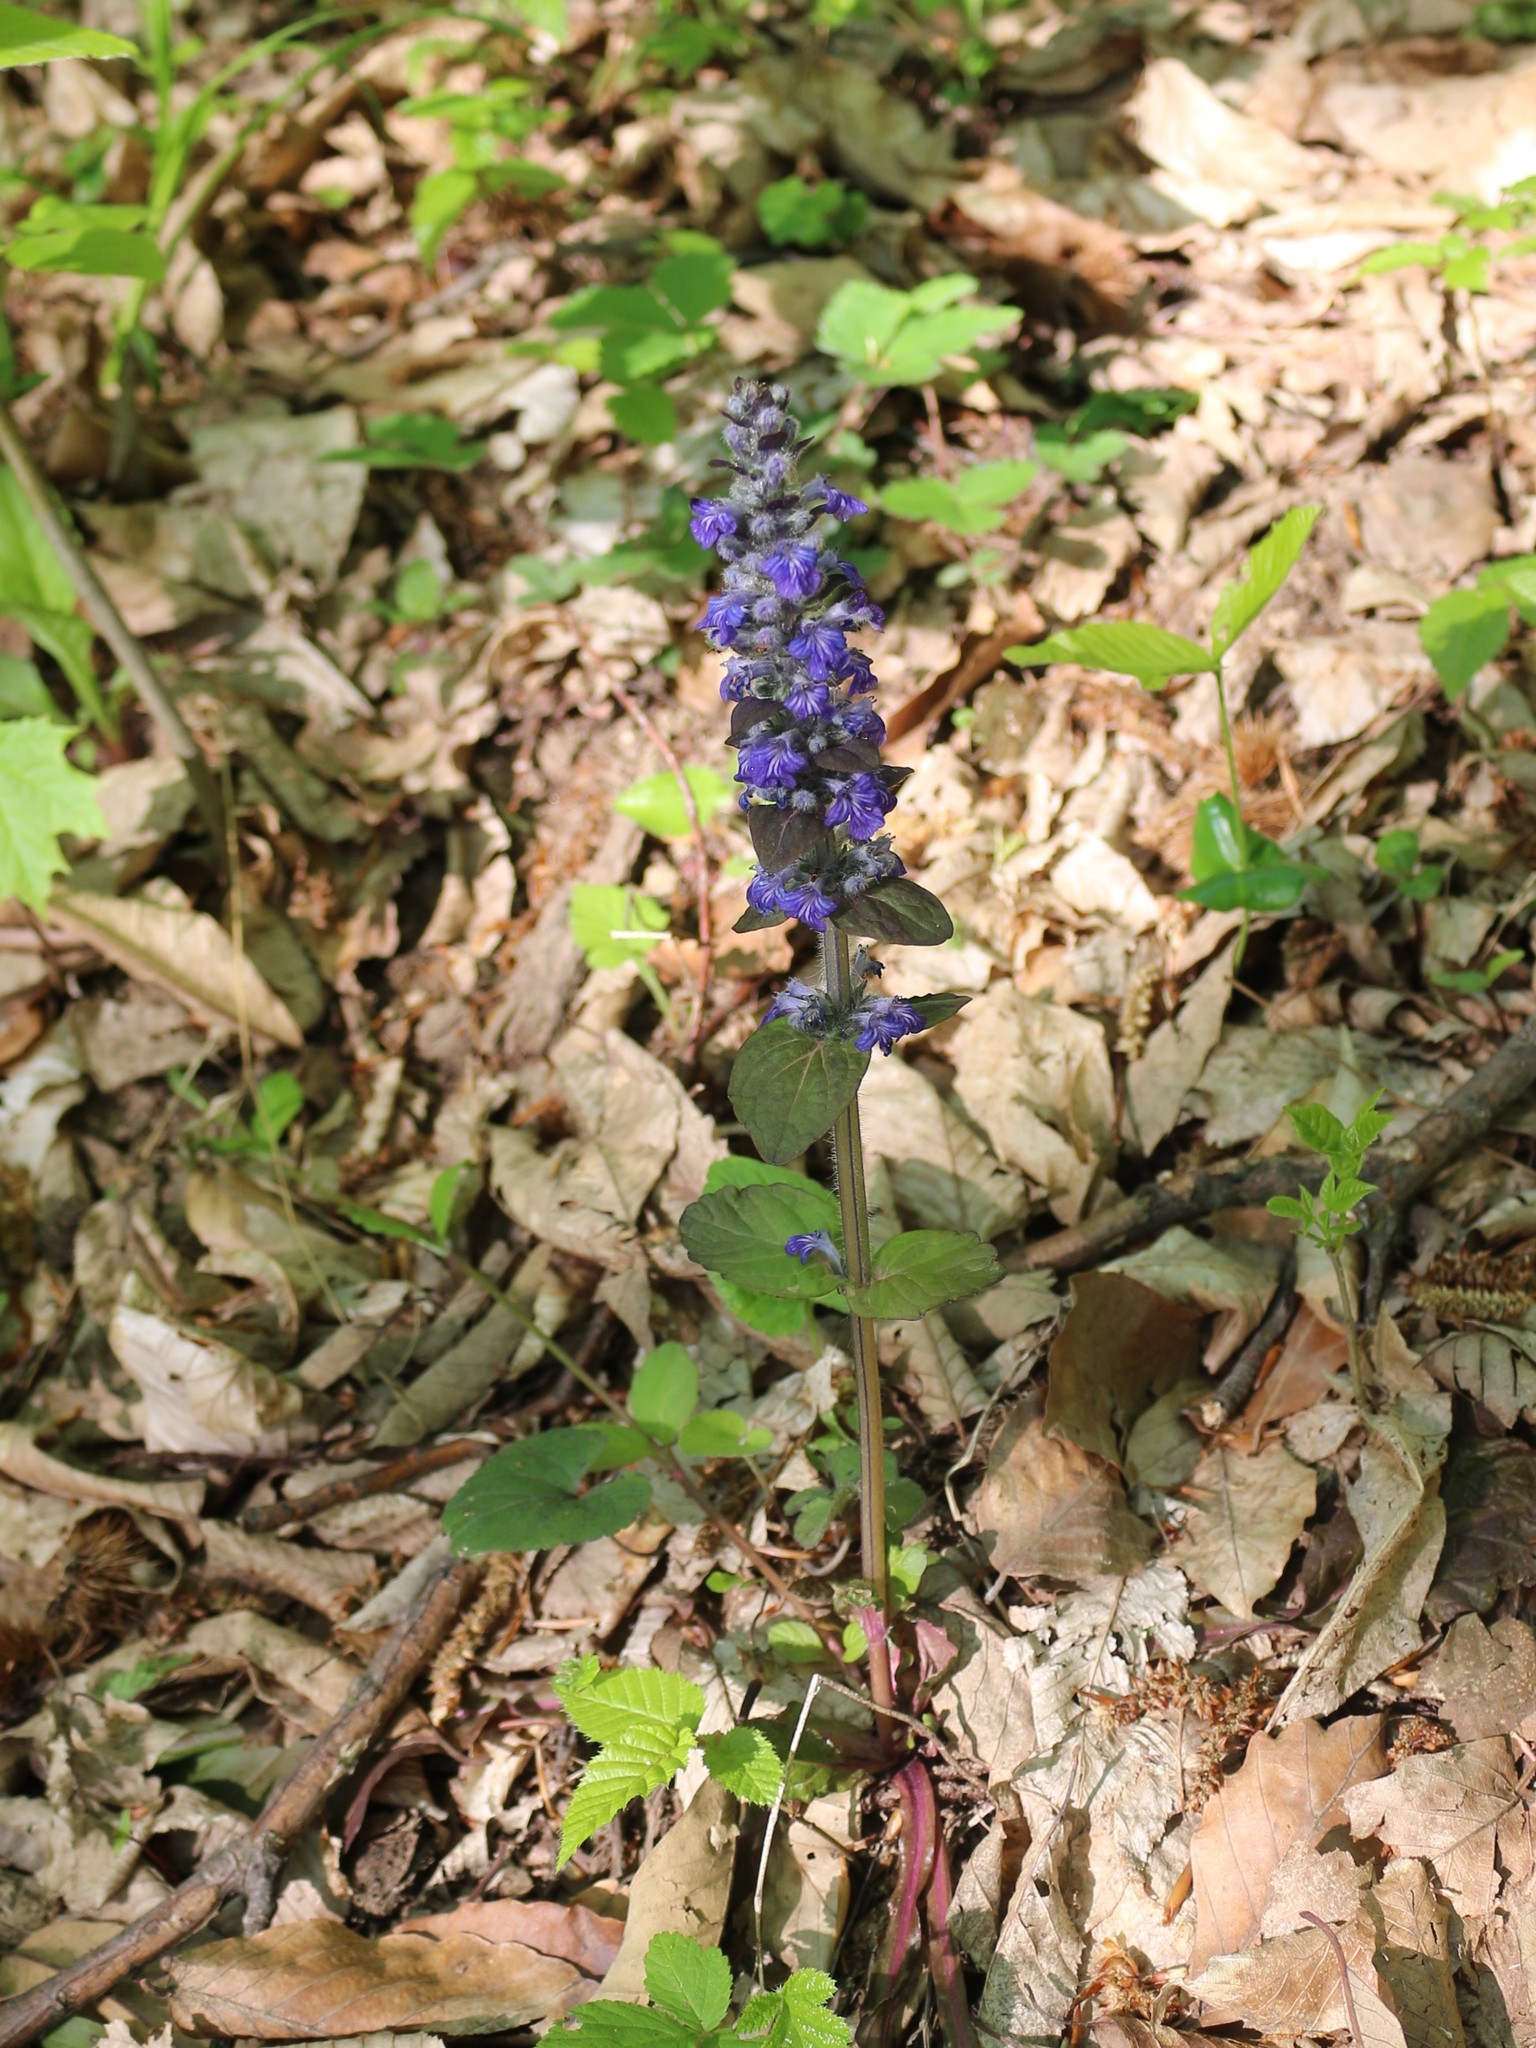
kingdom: Plantae
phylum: Tracheophyta
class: Magnoliopsida
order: Lamiales
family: Lamiaceae
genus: Ajuga
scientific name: Ajuga reptans
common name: Bugle
